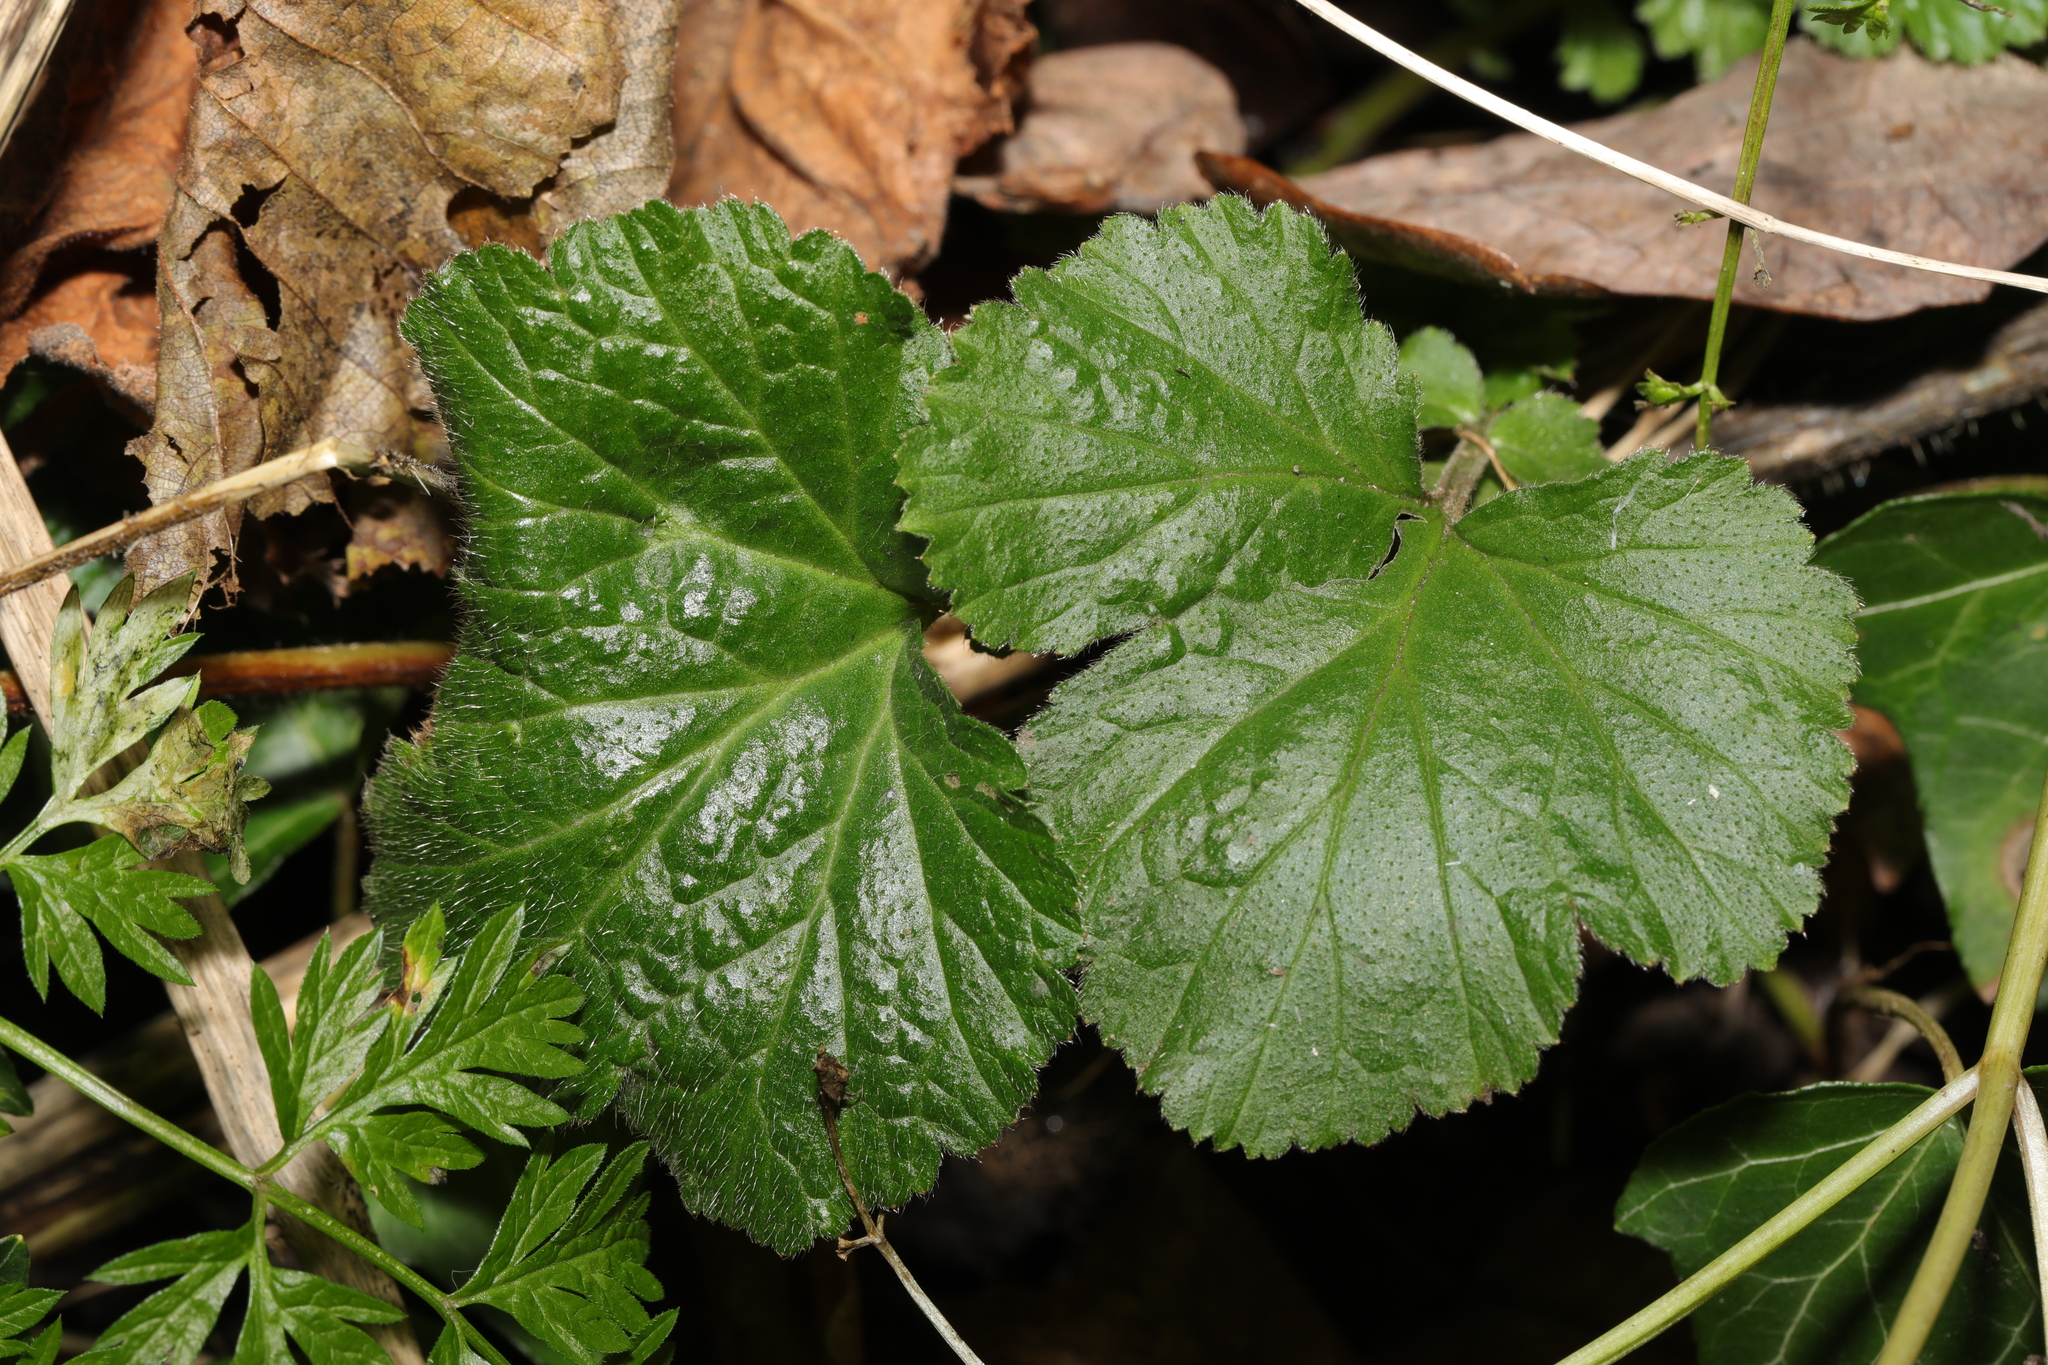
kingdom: Plantae
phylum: Tracheophyta
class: Magnoliopsida
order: Rosales
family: Rosaceae
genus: Geum
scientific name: Geum urbanum
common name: Wood avens
